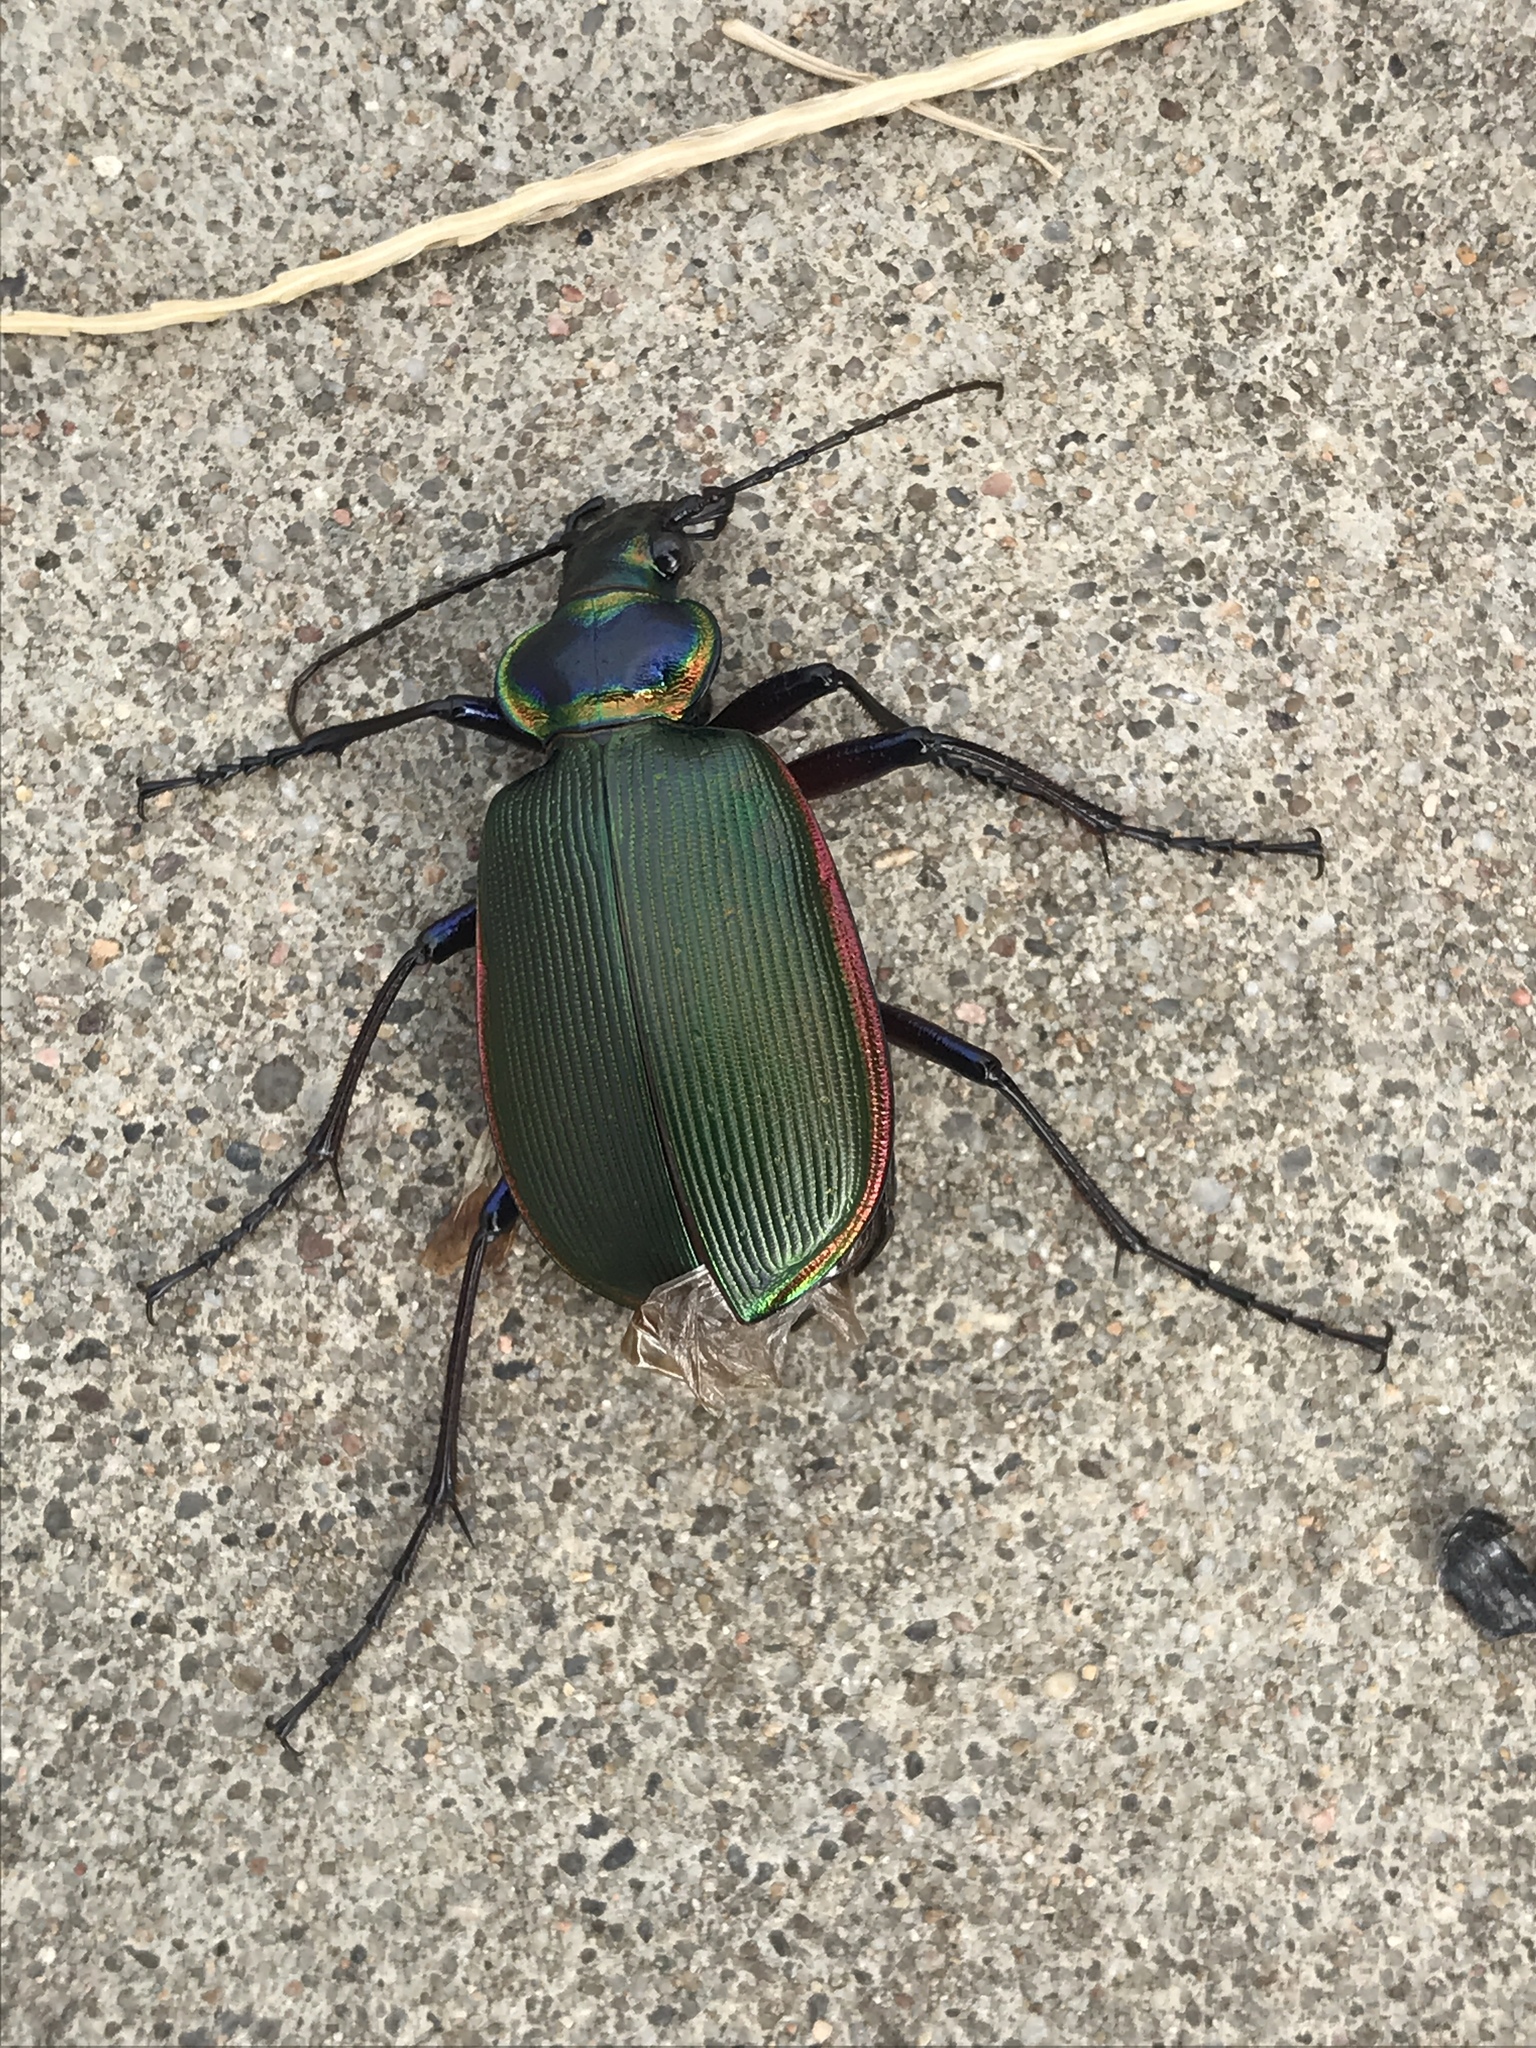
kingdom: Animalia
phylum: Arthropoda
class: Insecta
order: Coleoptera
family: Carabidae
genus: Calosoma
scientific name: Calosoma scrutator
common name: Fiery searcher beetle
